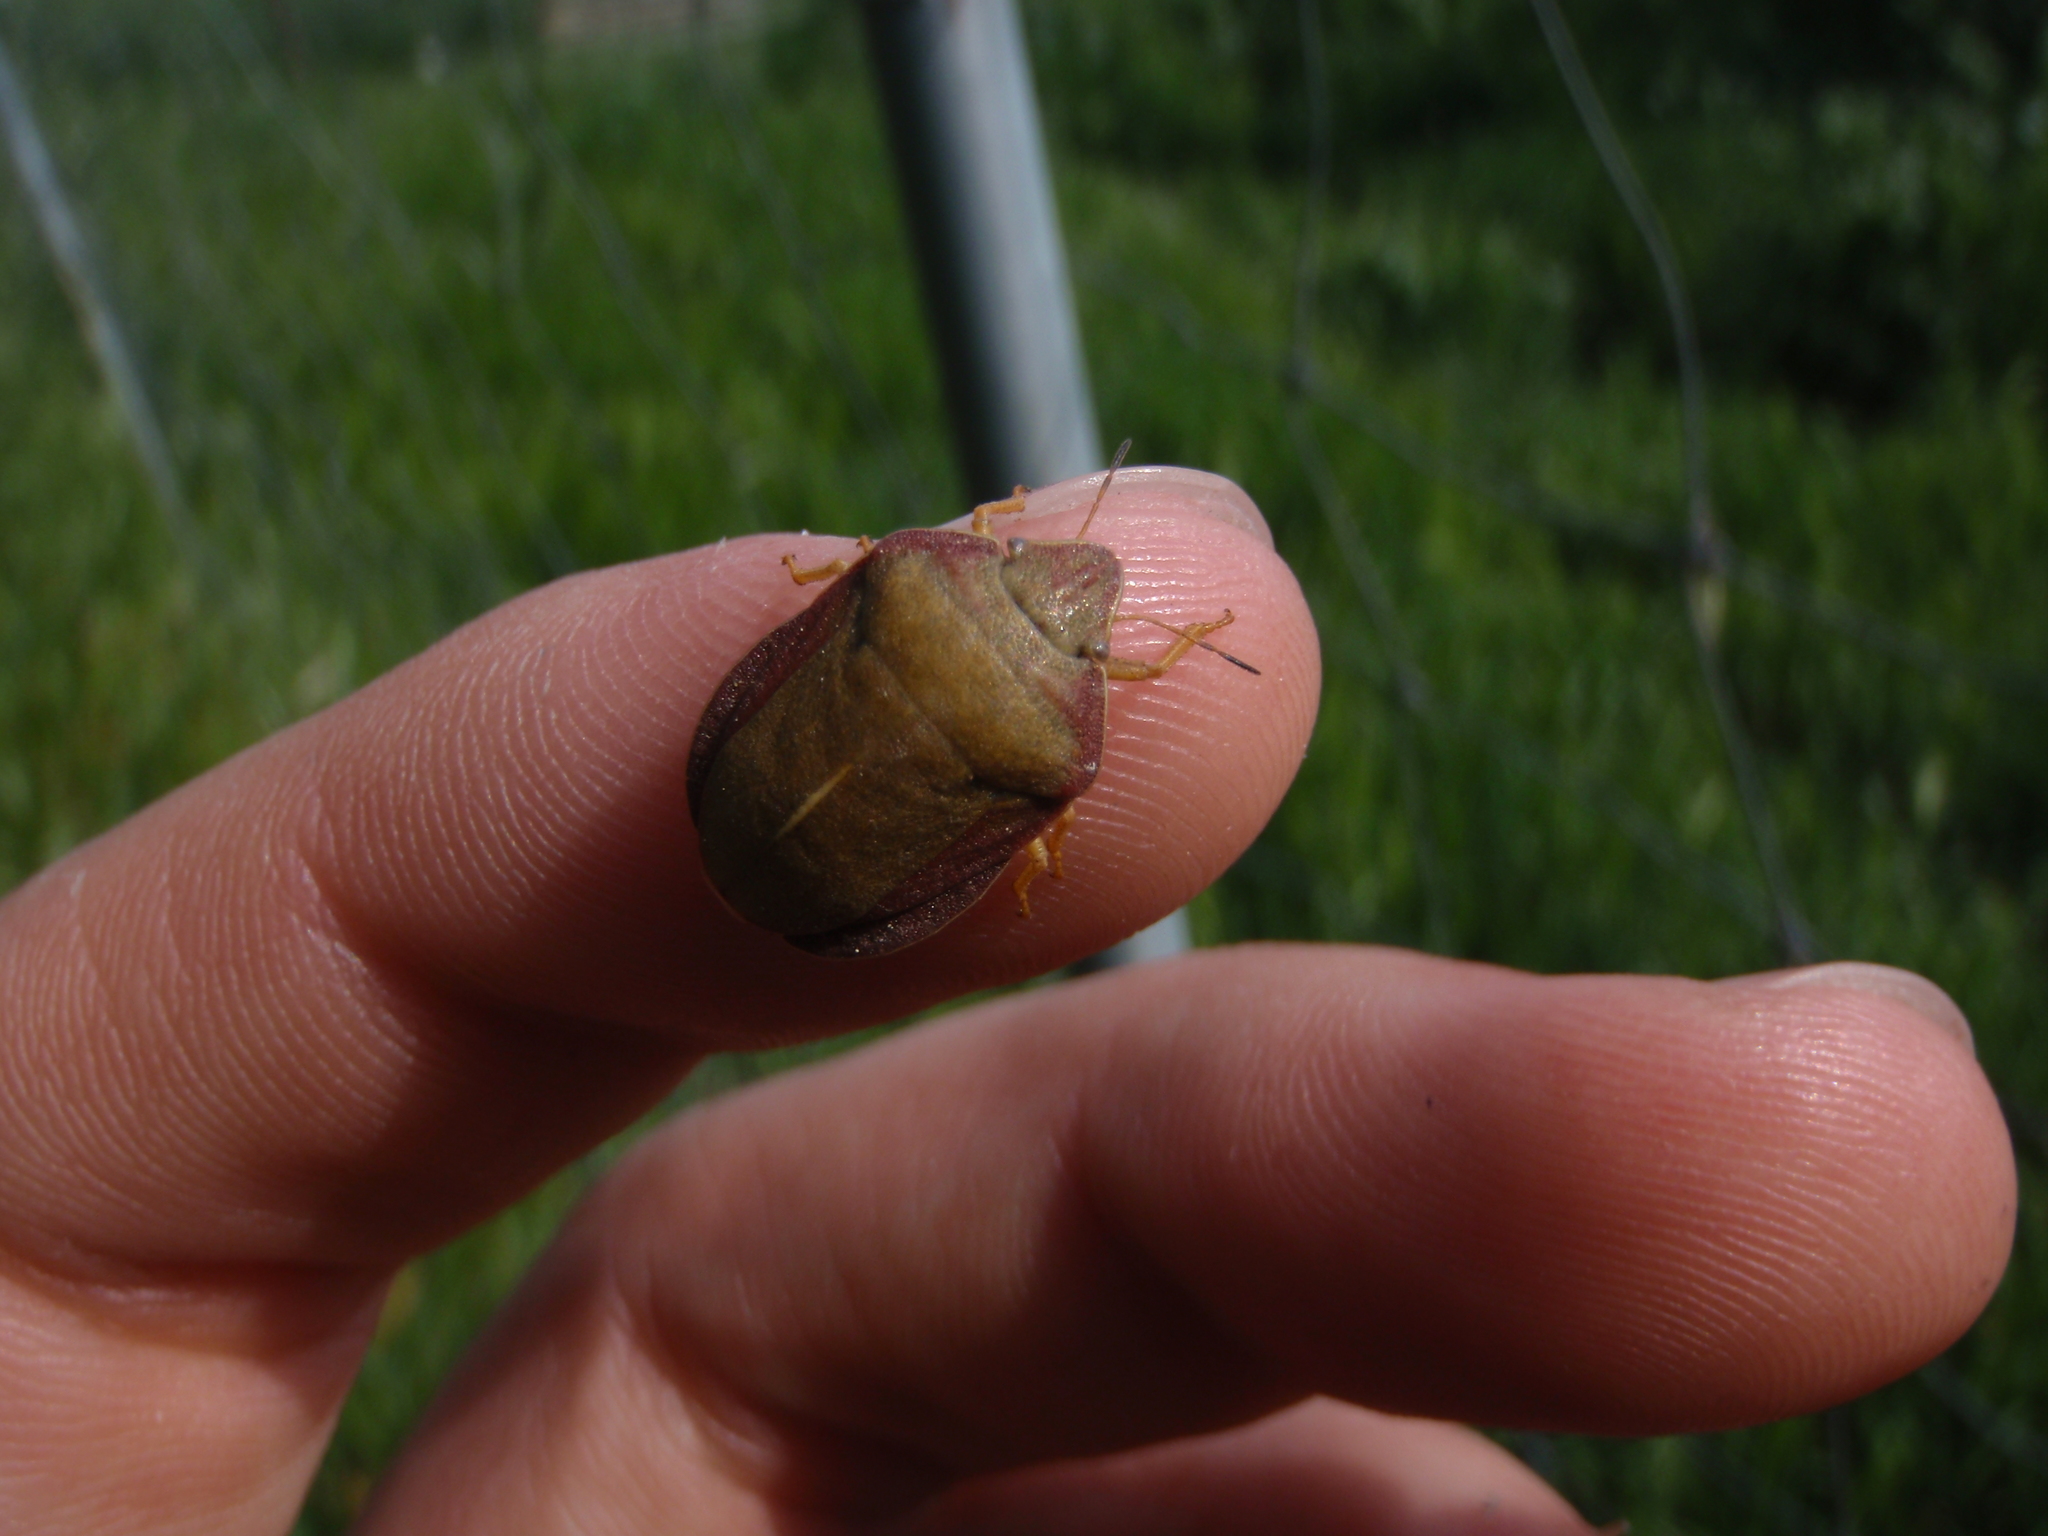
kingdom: Animalia
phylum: Arthropoda
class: Insecta
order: Hemiptera
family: Scutelleridae
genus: Eurygaster
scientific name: Eurygaster austriaca
